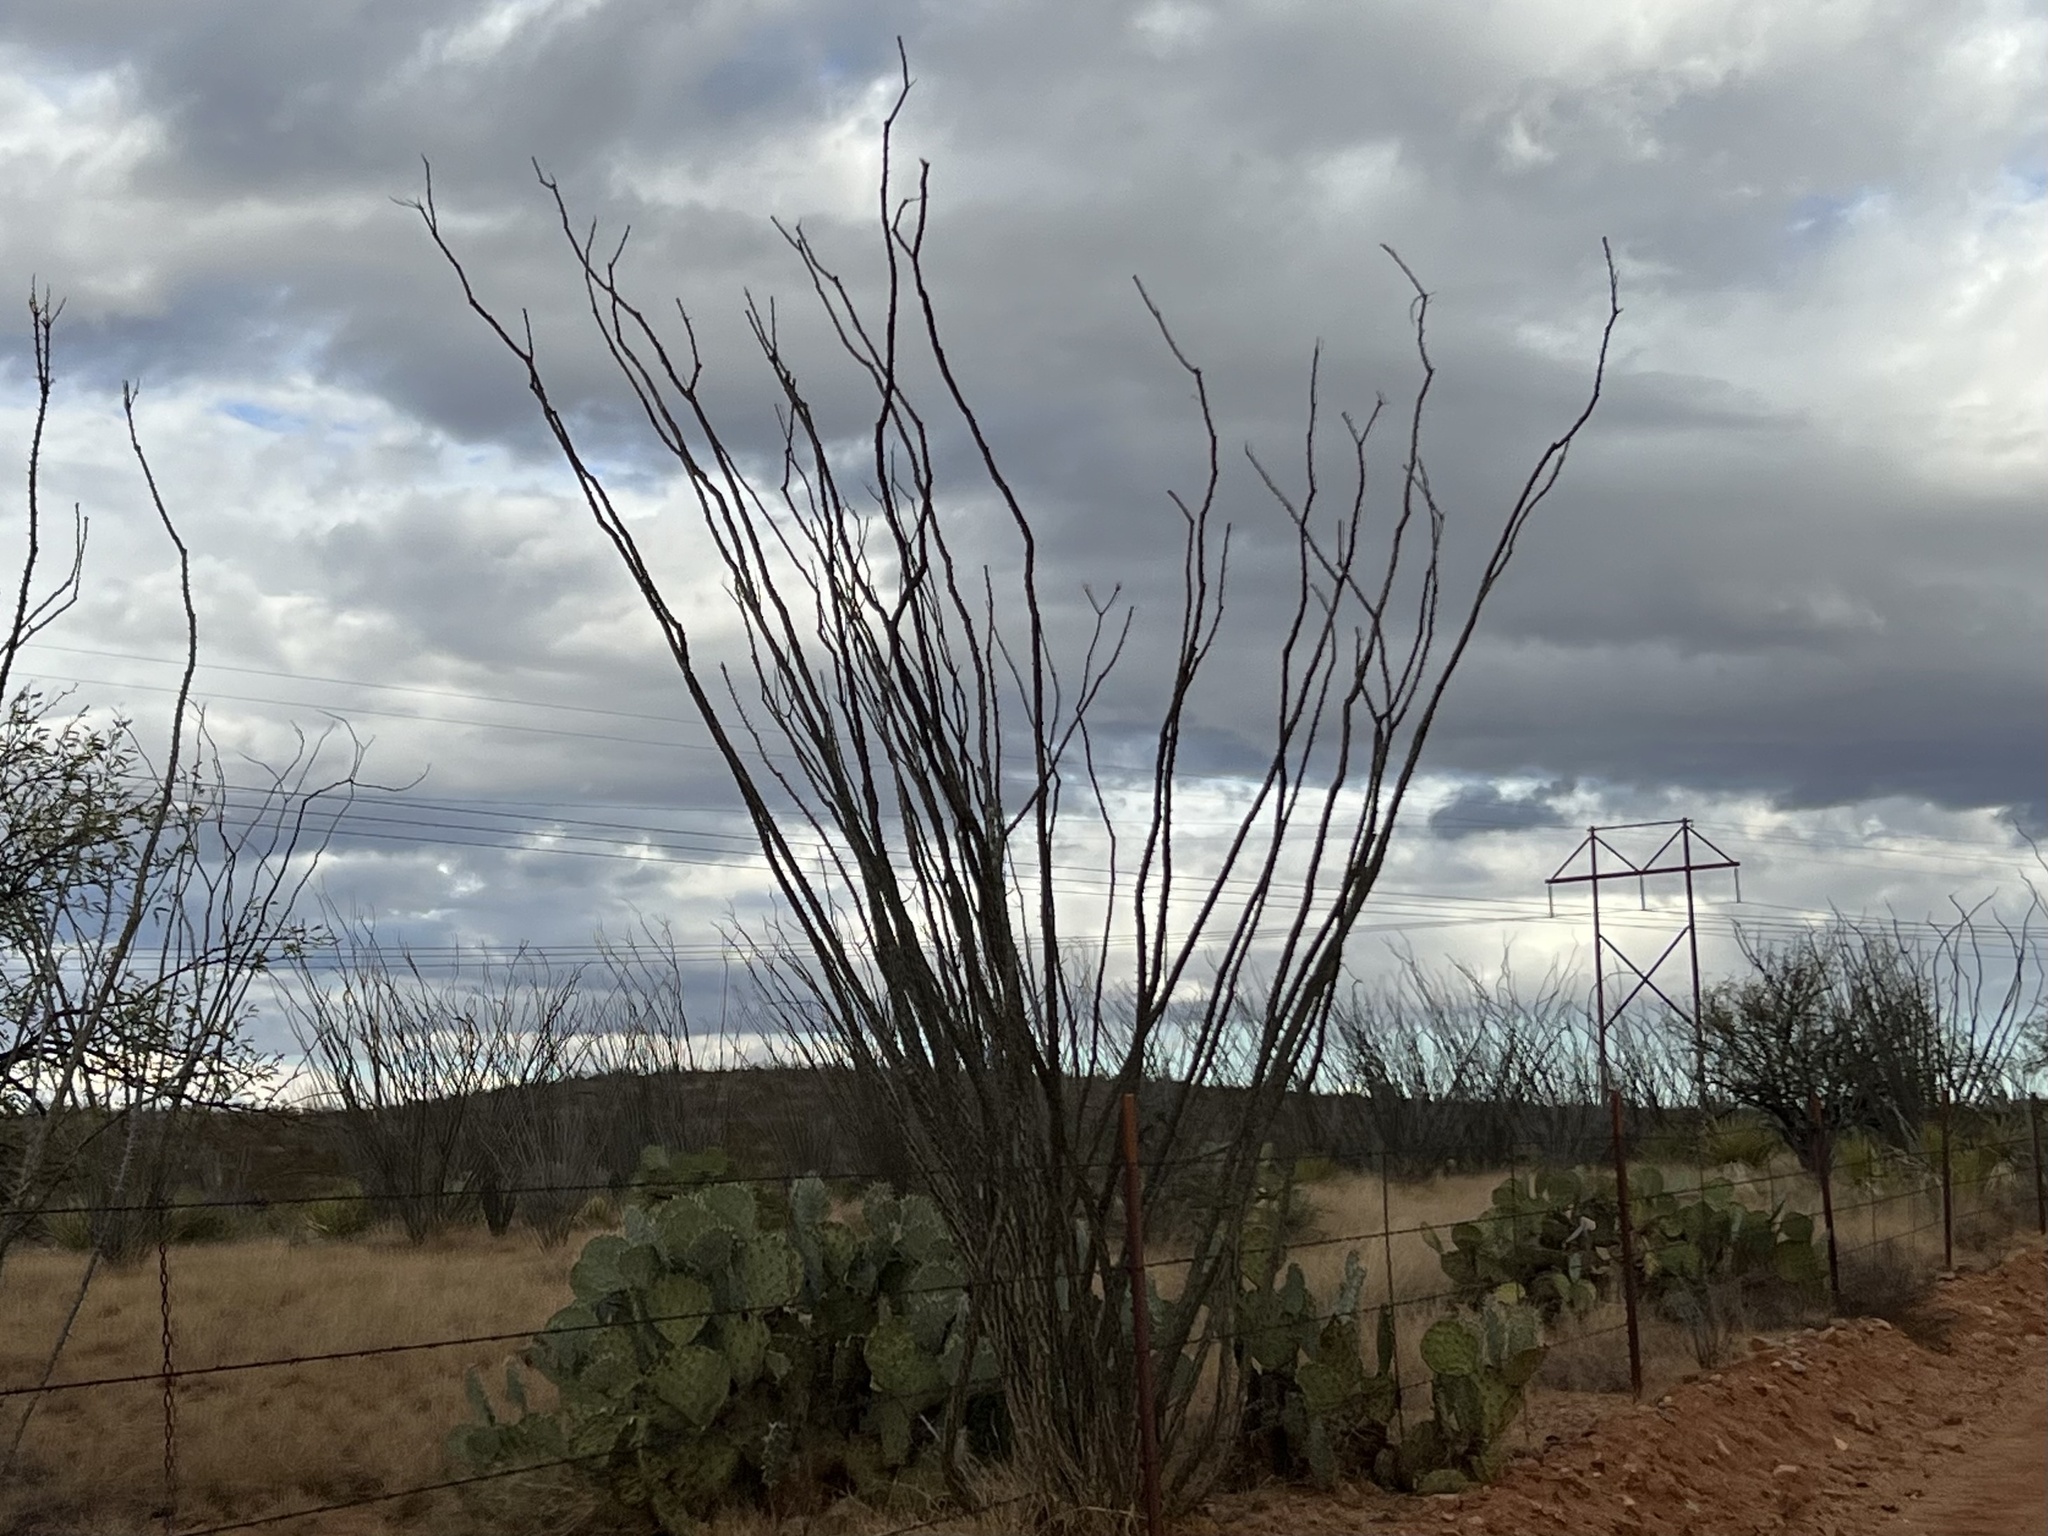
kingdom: Plantae
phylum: Tracheophyta
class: Magnoliopsida
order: Ericales
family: Fouquieriaceae
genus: Fouquieria
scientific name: Fouquieria splendens
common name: Vine-cactus
